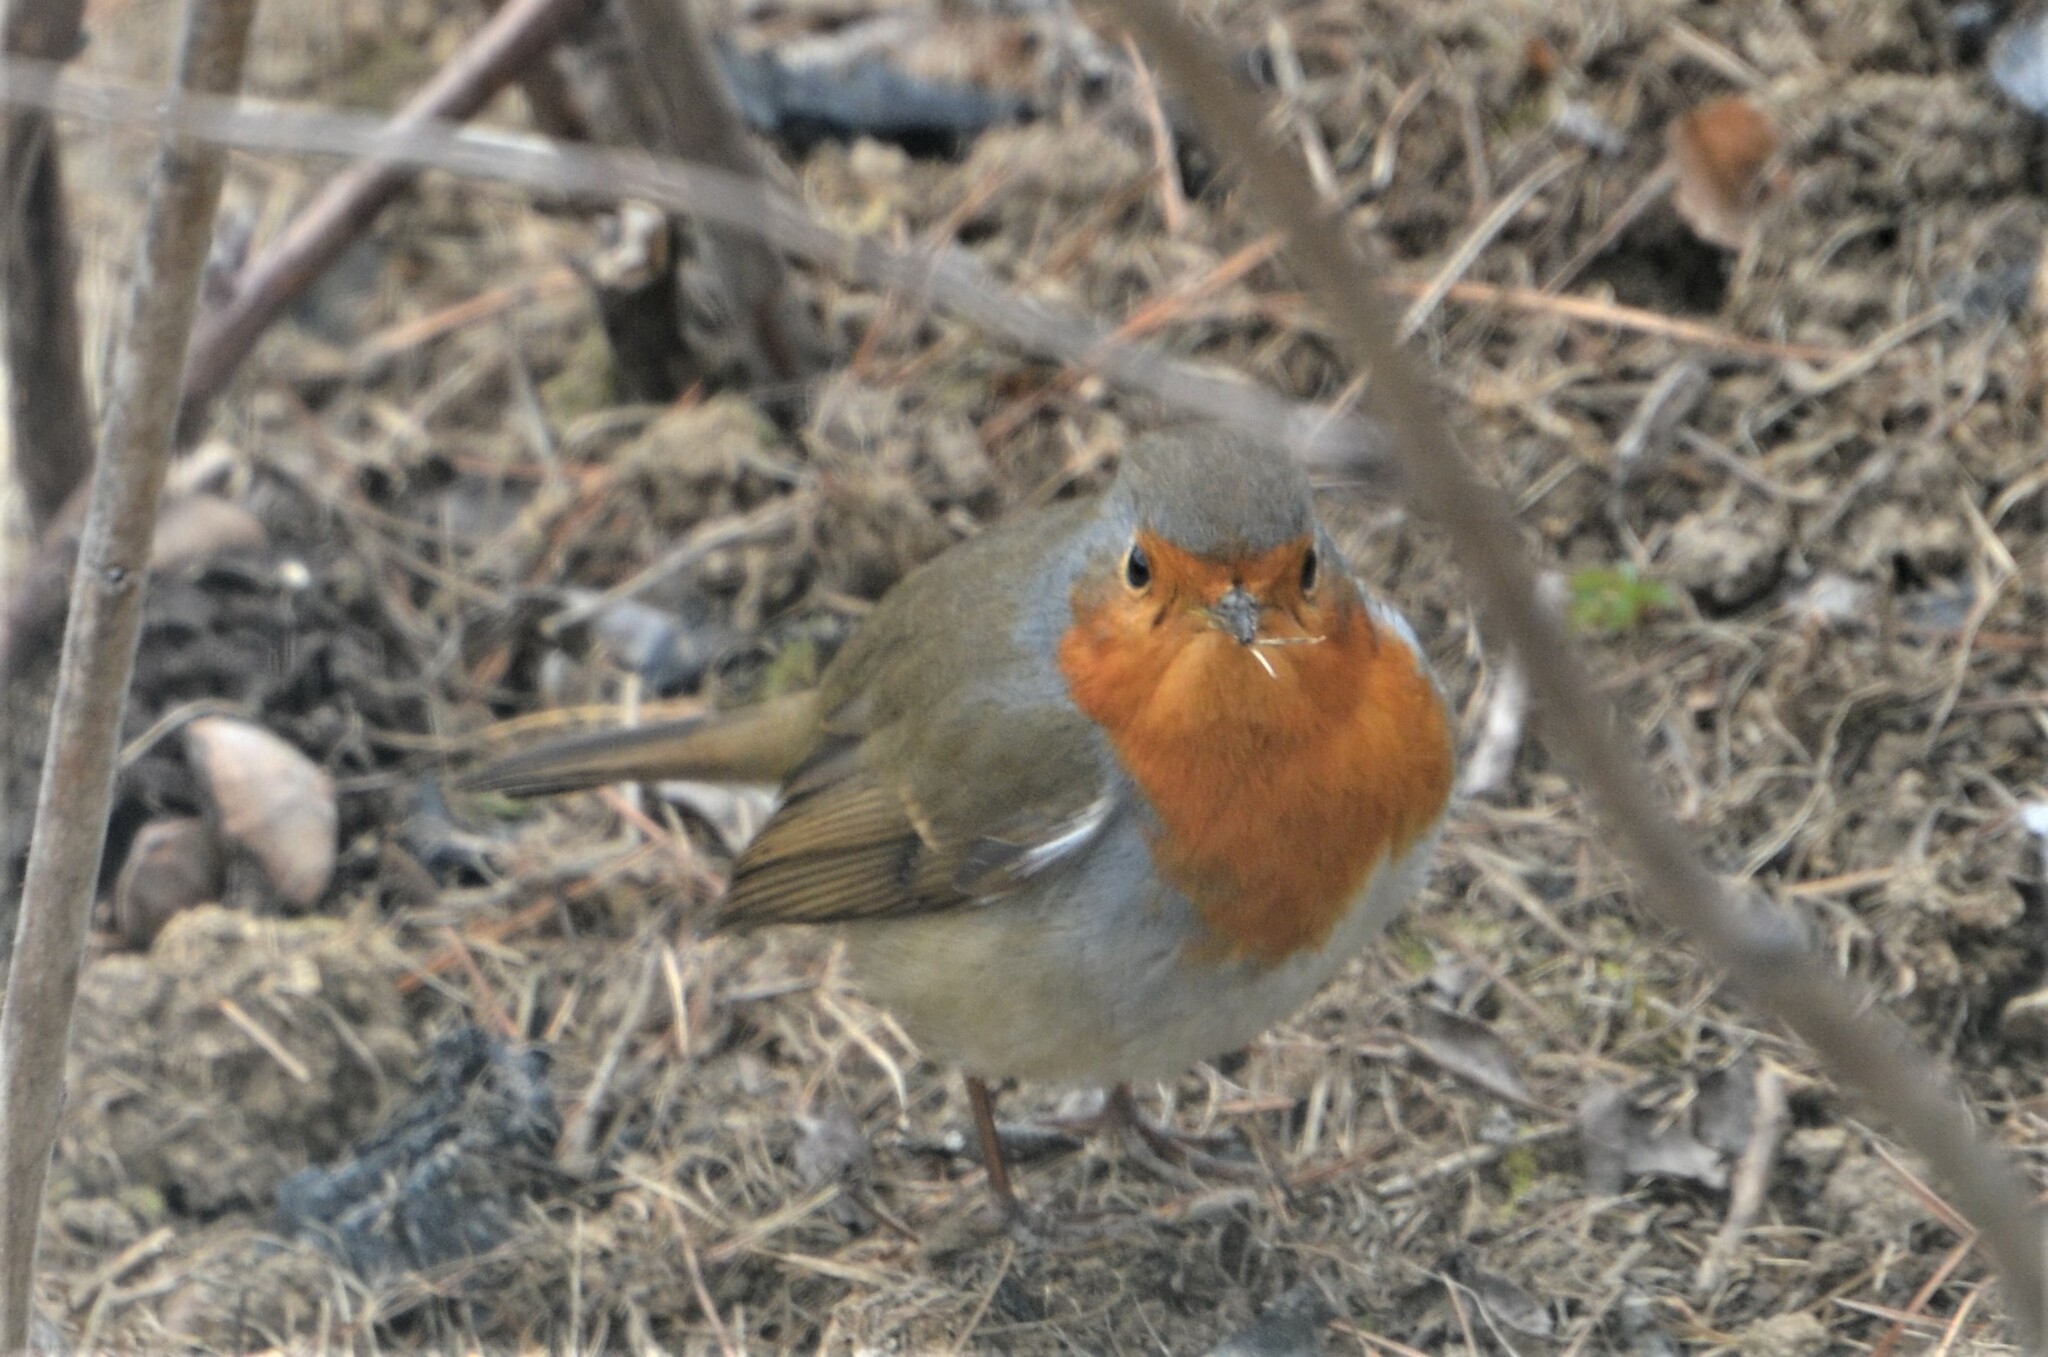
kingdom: Animalia
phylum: Chordata
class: Aves
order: Passeriformes
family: Muscicapidae
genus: Erithacus
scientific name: Erithacus rubecula
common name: European robin
